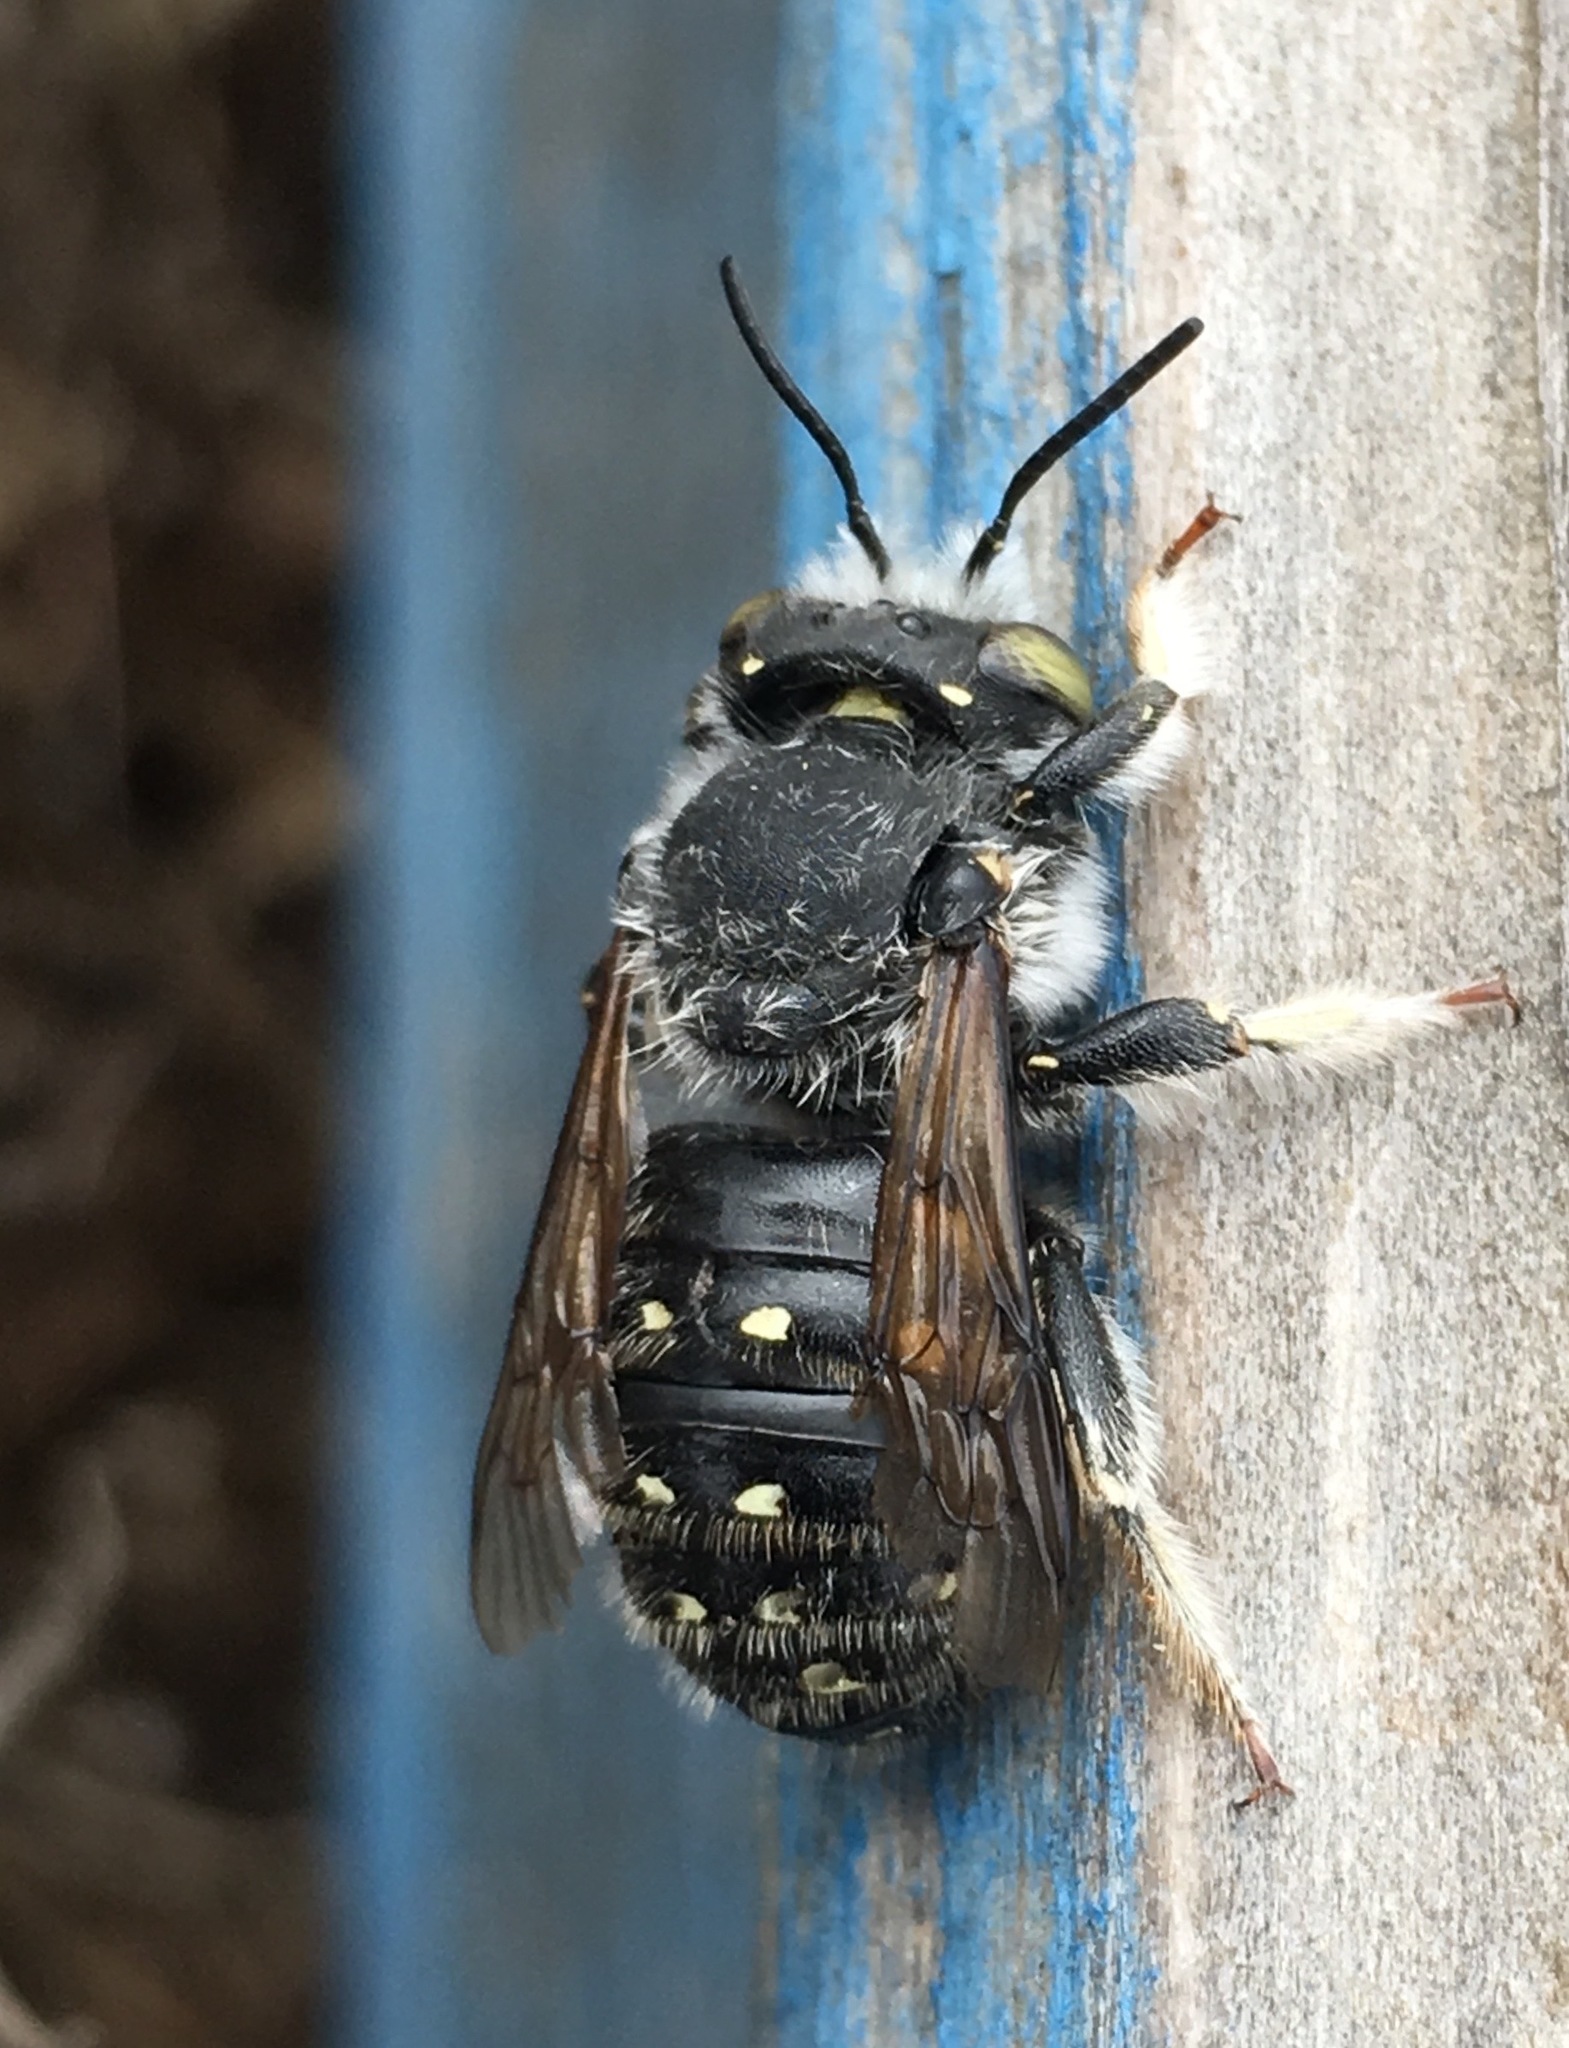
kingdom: Animalia
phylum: Arthropoda
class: Insecta
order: Hymenoptera
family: Megachilidae
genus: Anthidium
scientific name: Anthidium collectum
